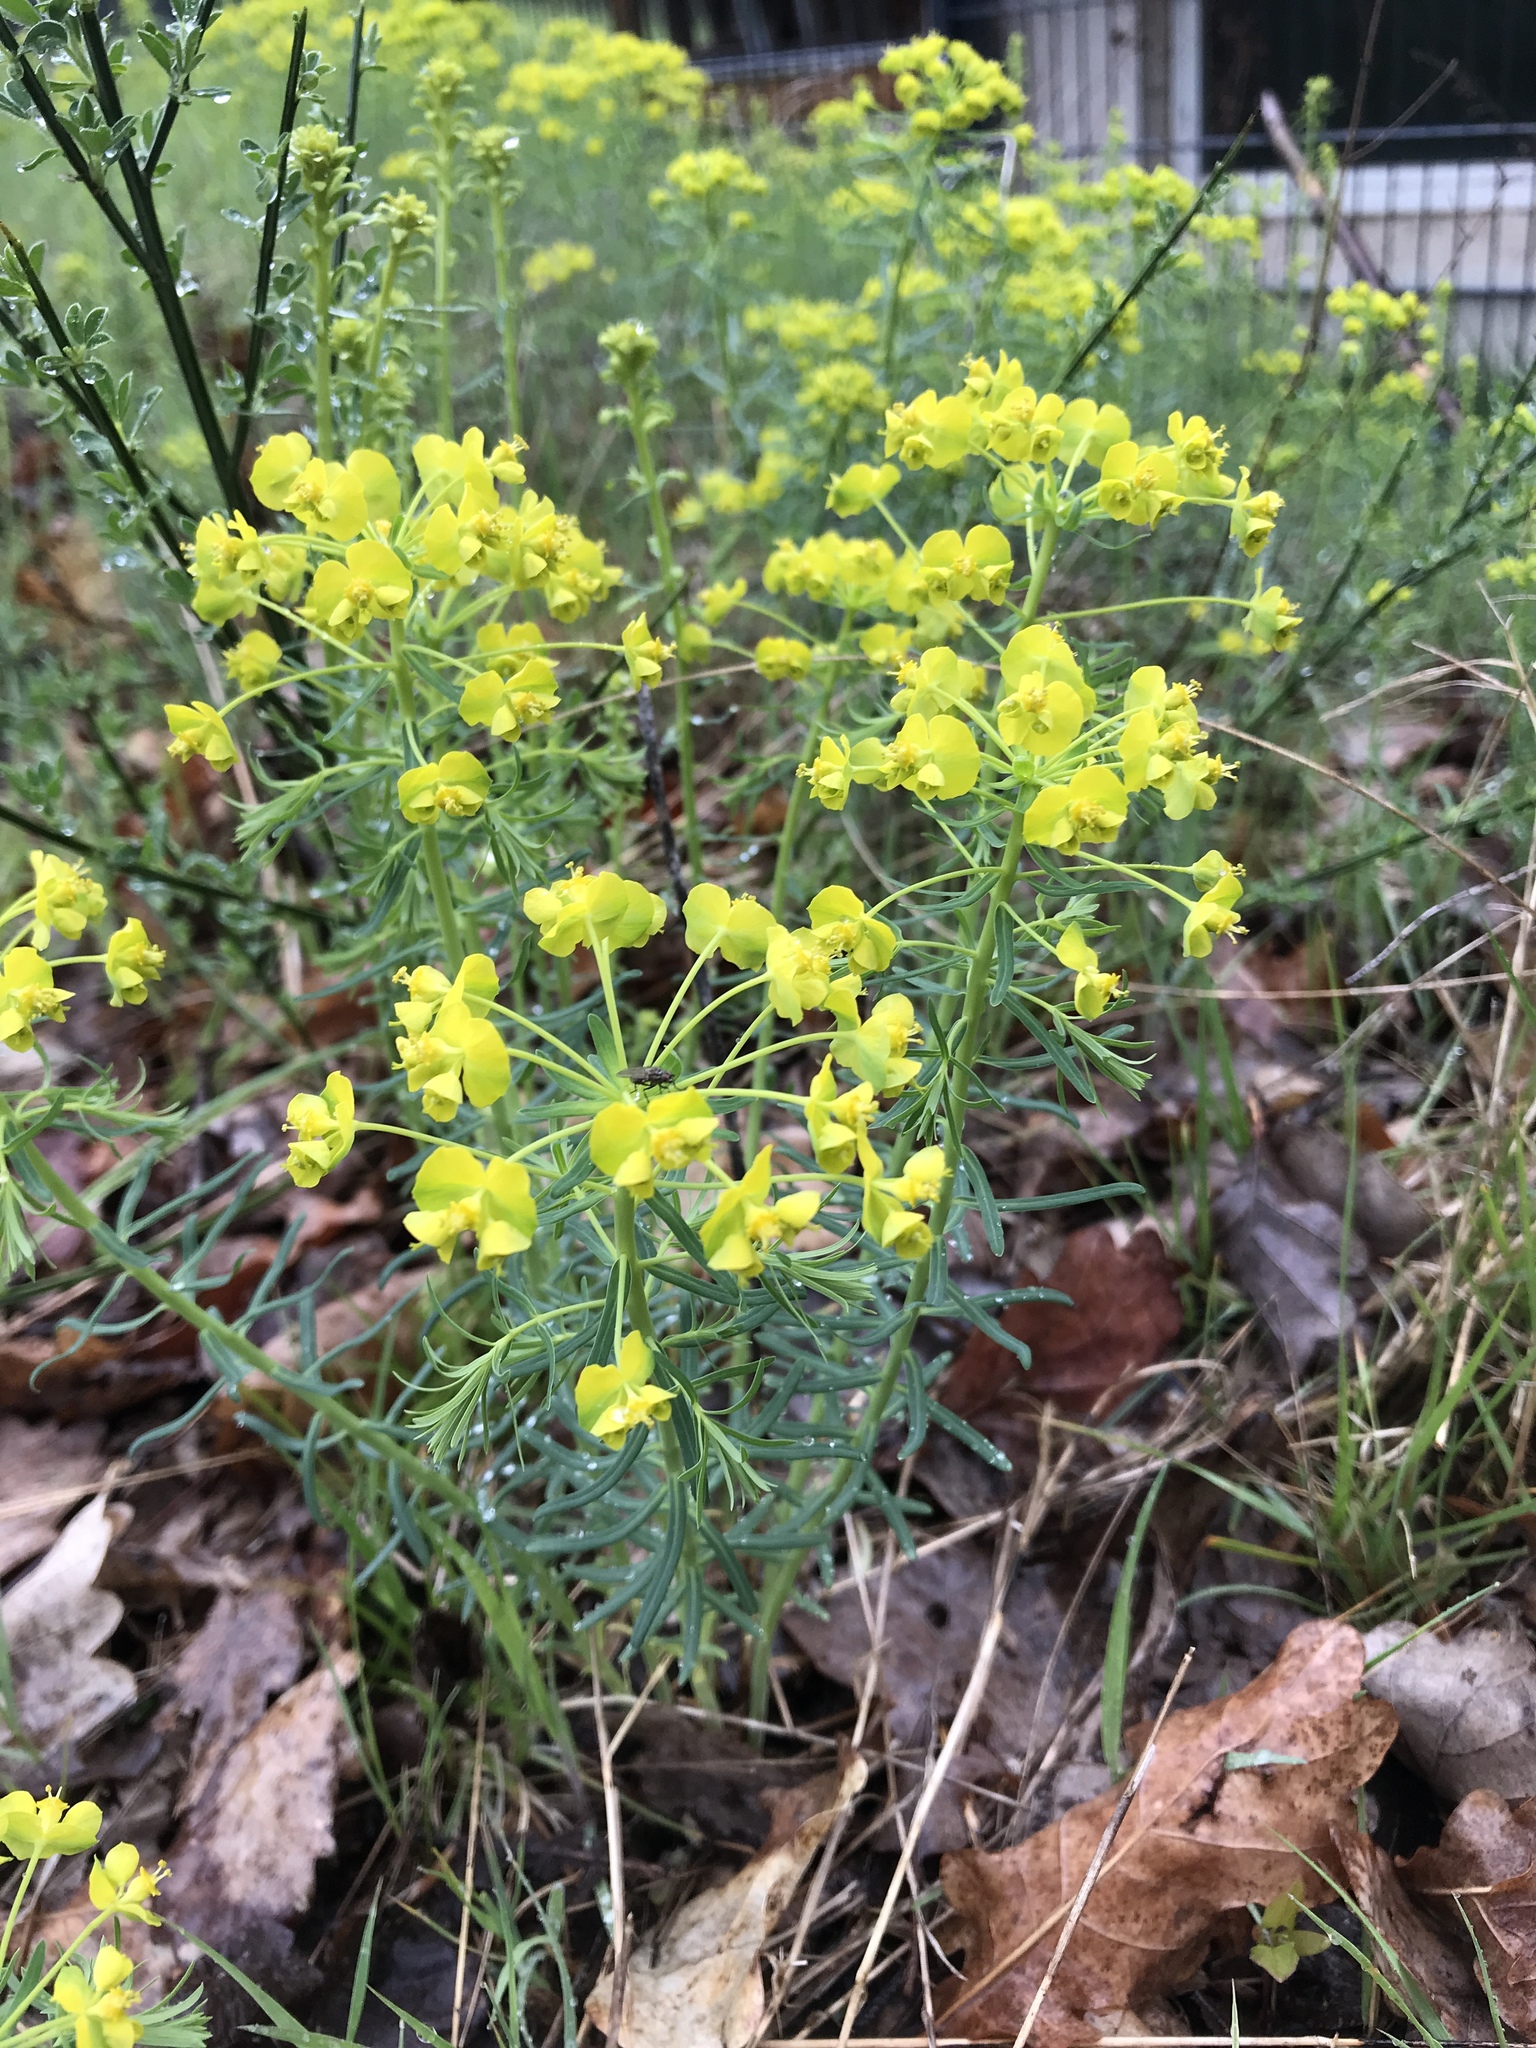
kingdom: Plantae
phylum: Tracheophyta
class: Magnoliopsida
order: Malpighiales
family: Euphorbiaceae
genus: Euphorbia
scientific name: Euphorbia cyparissias
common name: Cypress spurge
